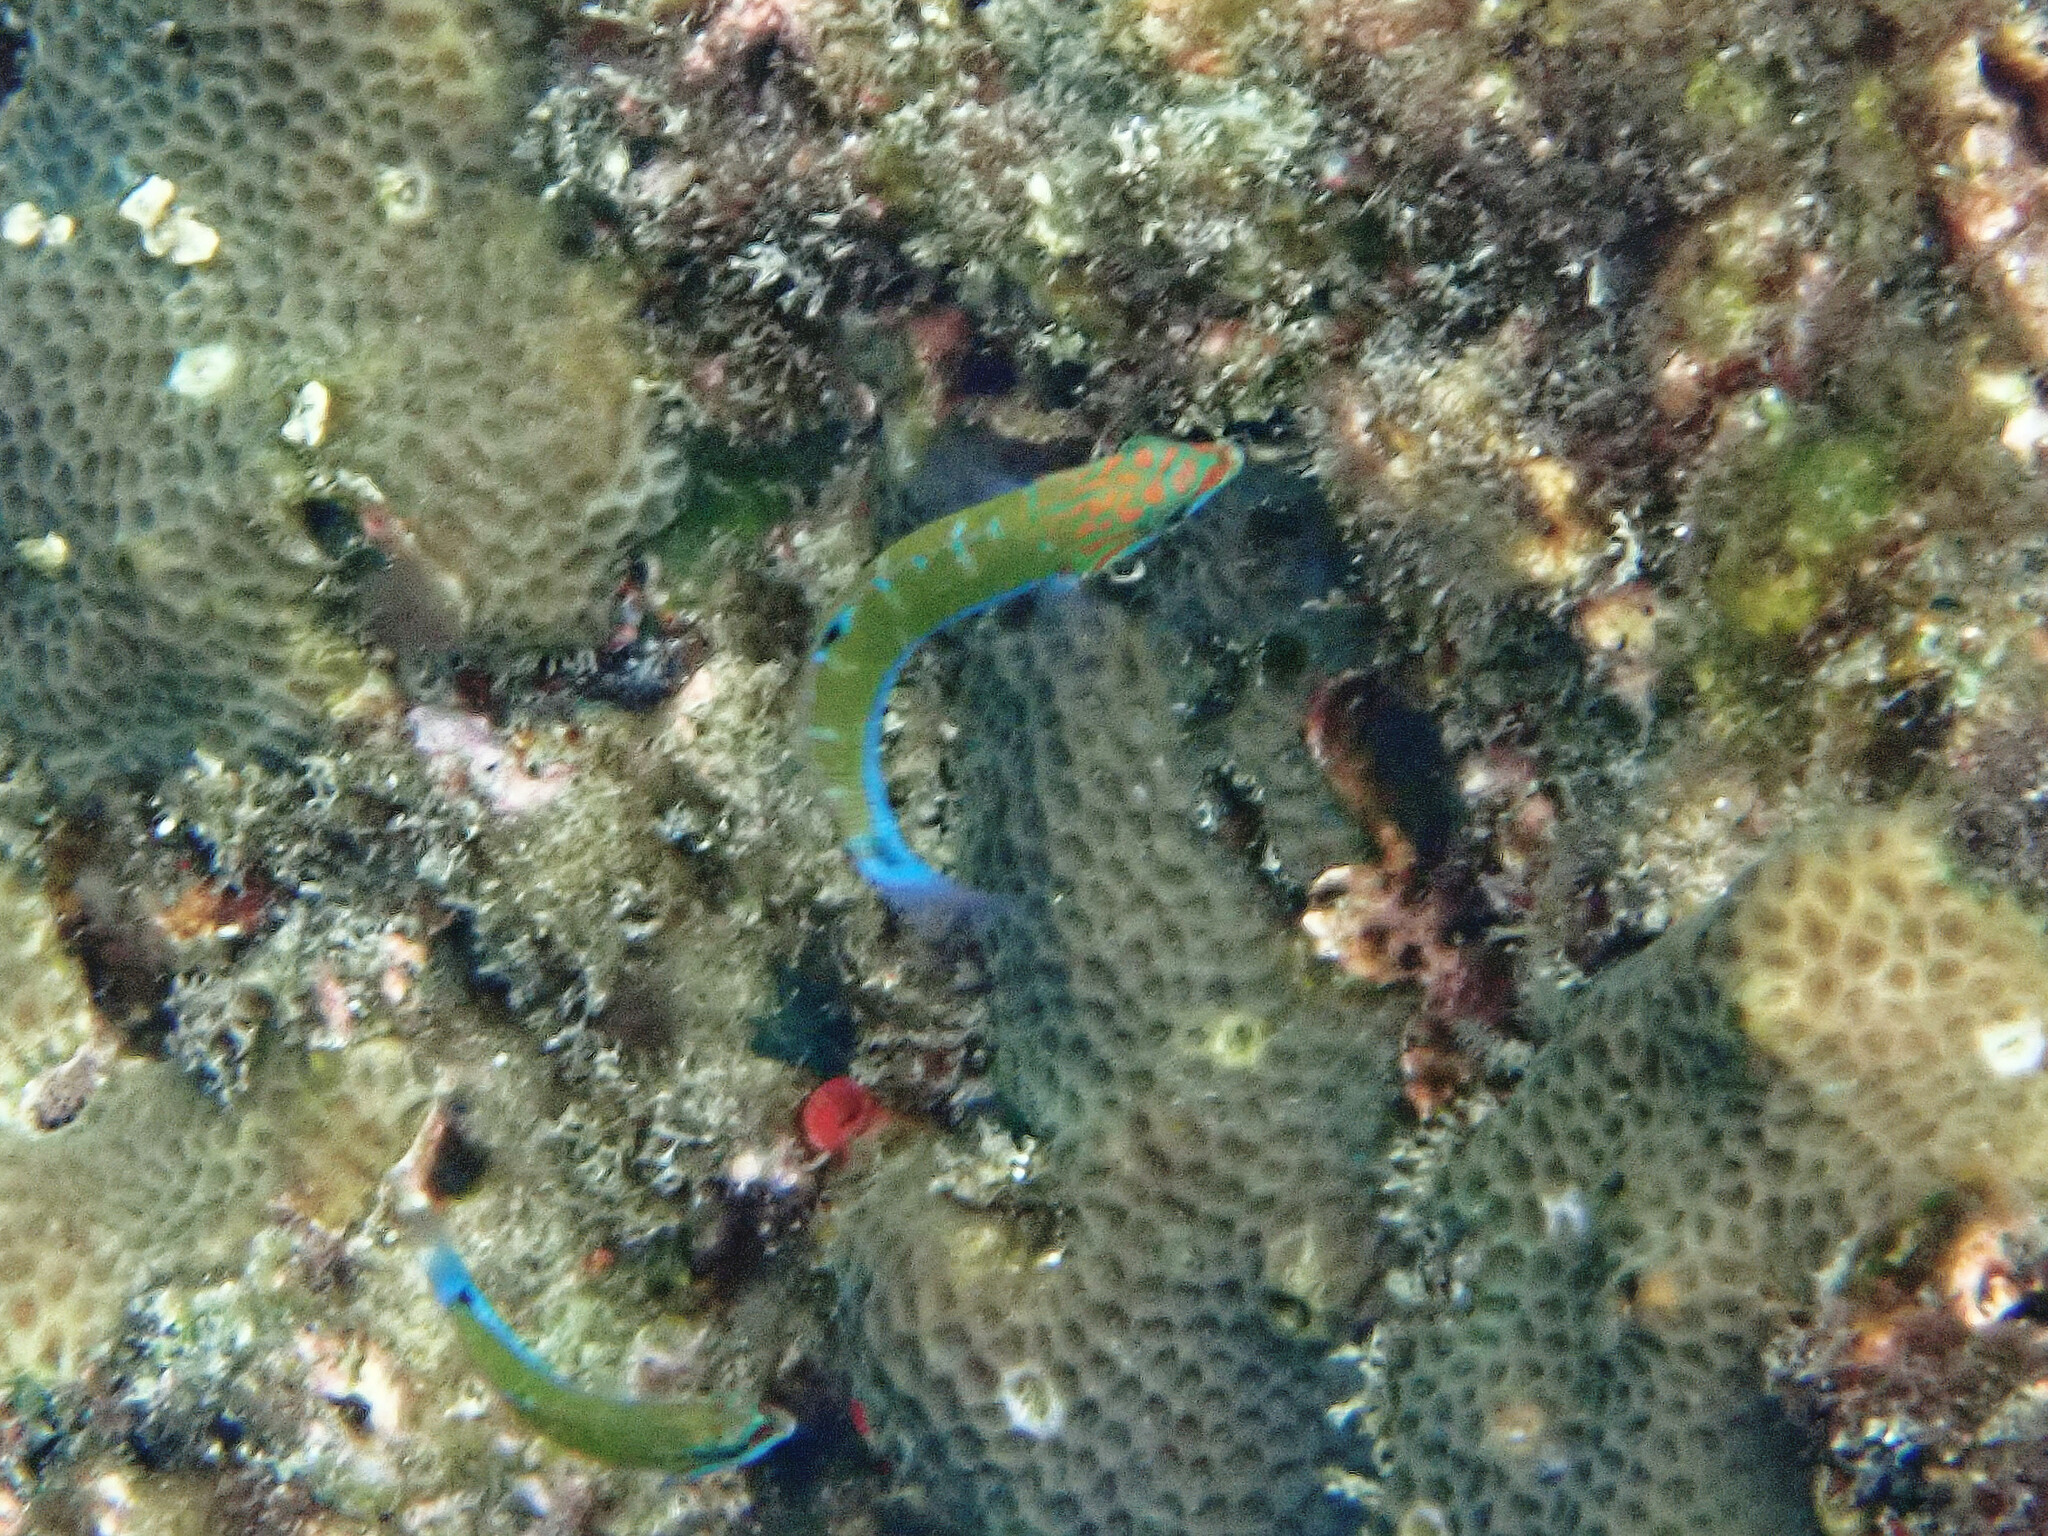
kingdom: Animalia
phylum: Chordata
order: Perciformes
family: Labridae
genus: Thalassoma
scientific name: Thalassoma lunare
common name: Blue wrasse
